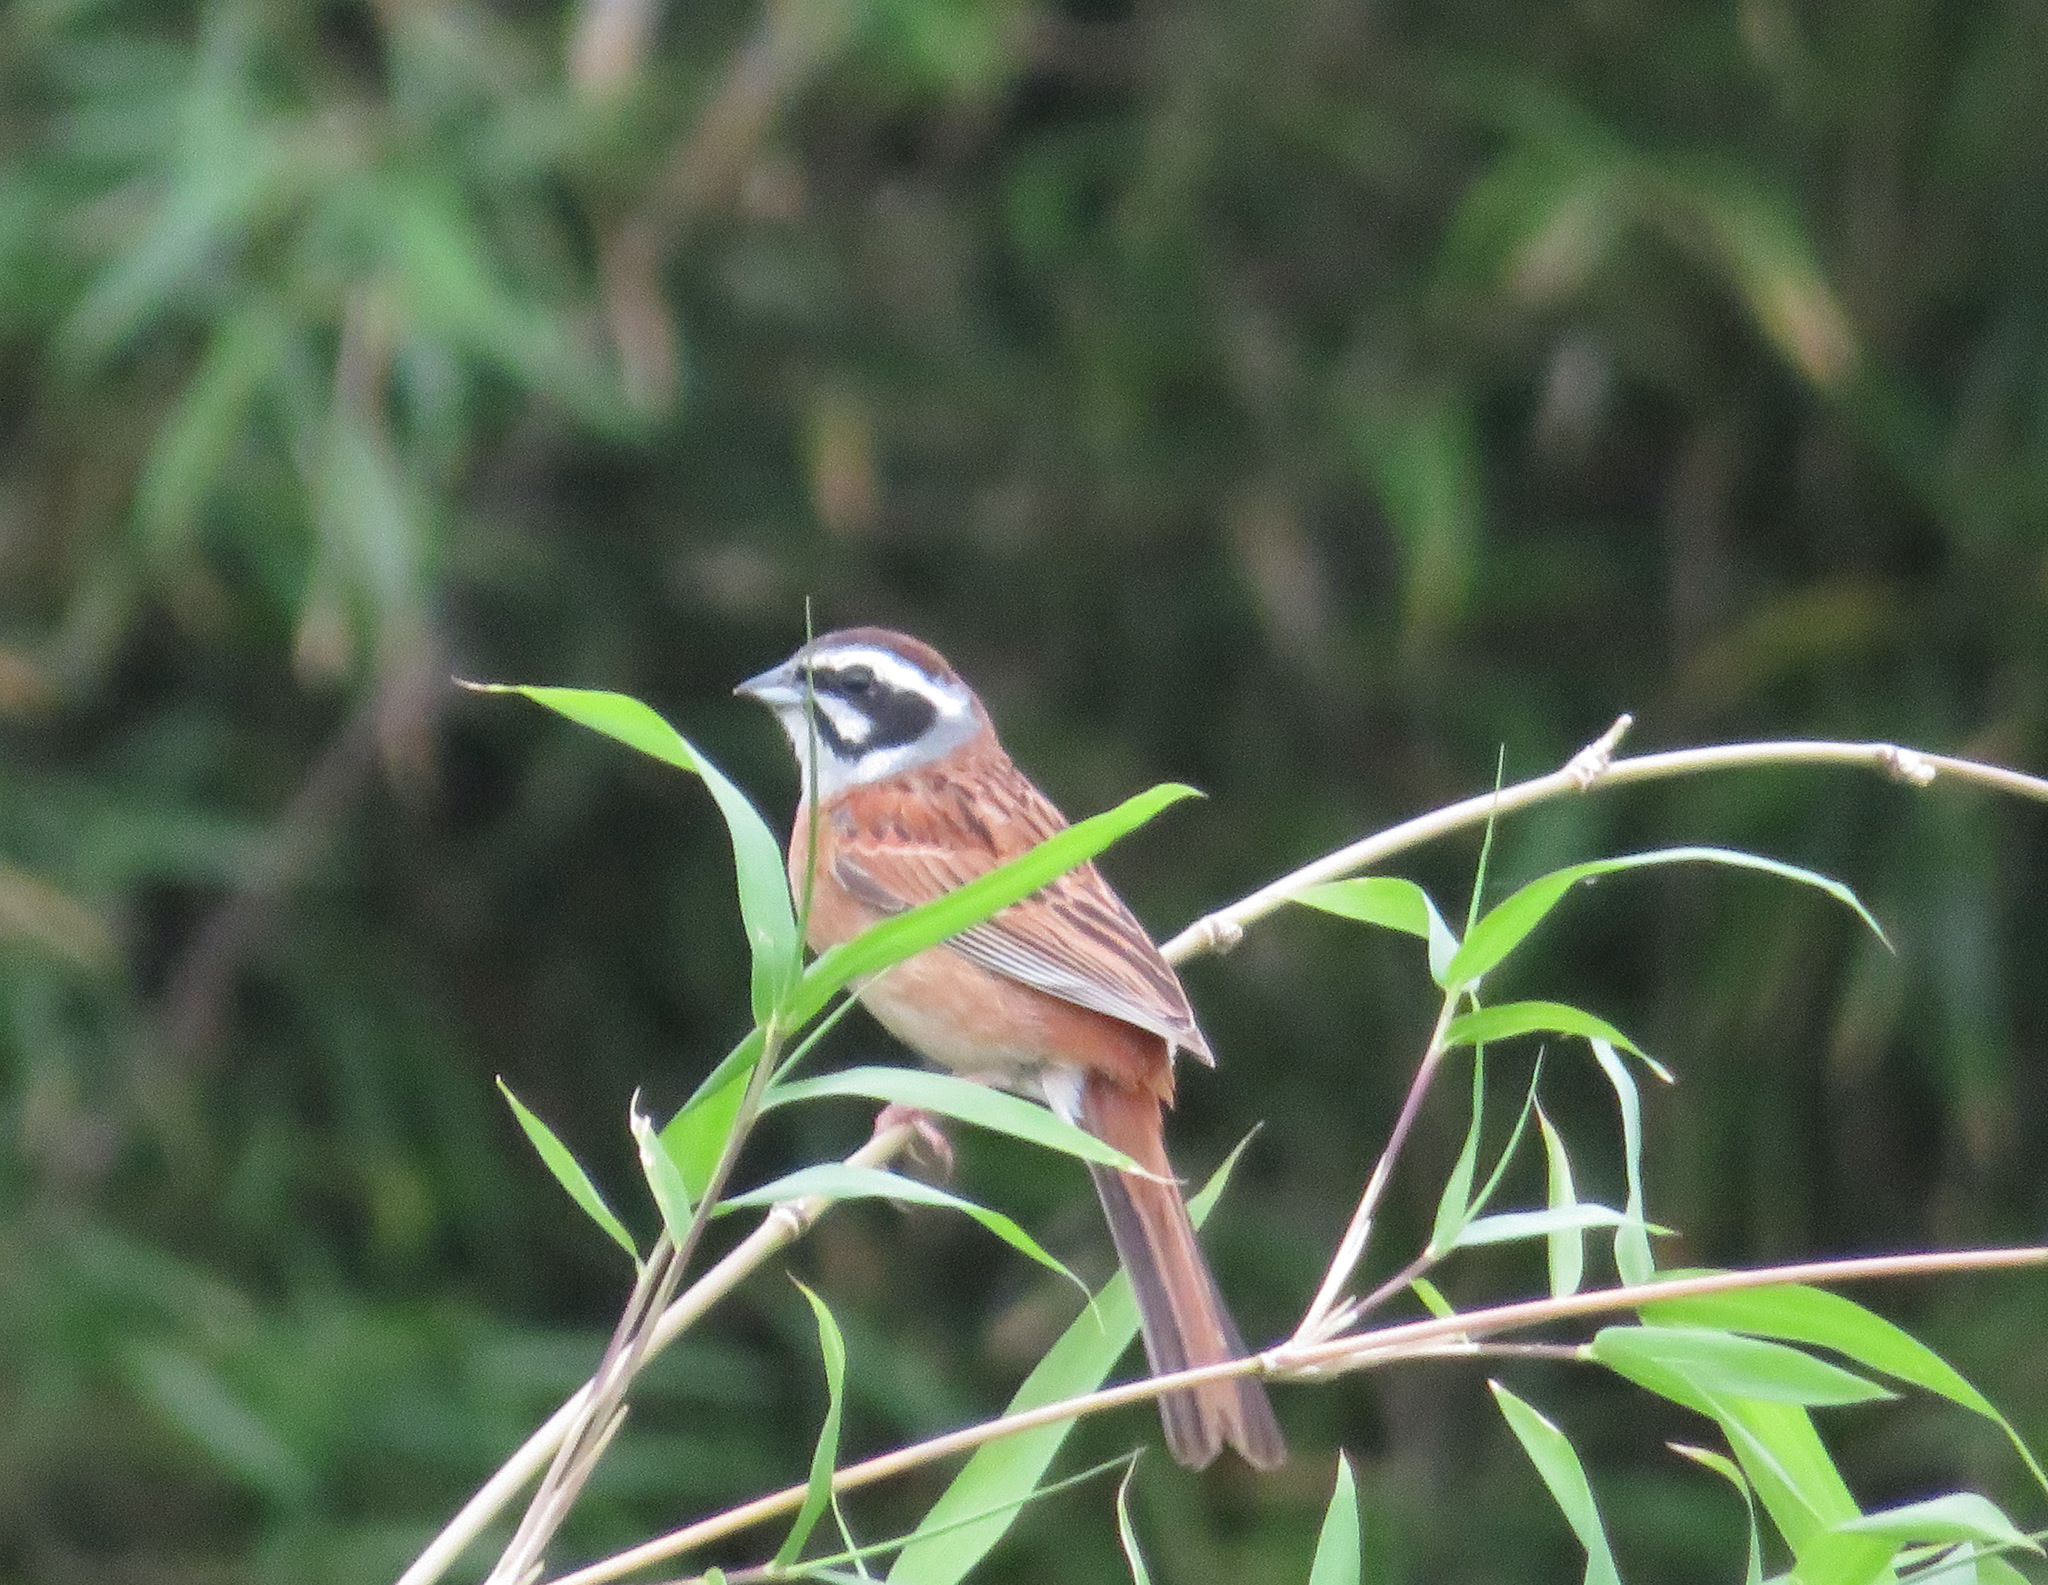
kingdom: Animalia
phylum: Chordata
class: Aves
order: Passeriformes
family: Emberizidae
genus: Emberiza
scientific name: Emberiza cioides
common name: Meadow bunting
